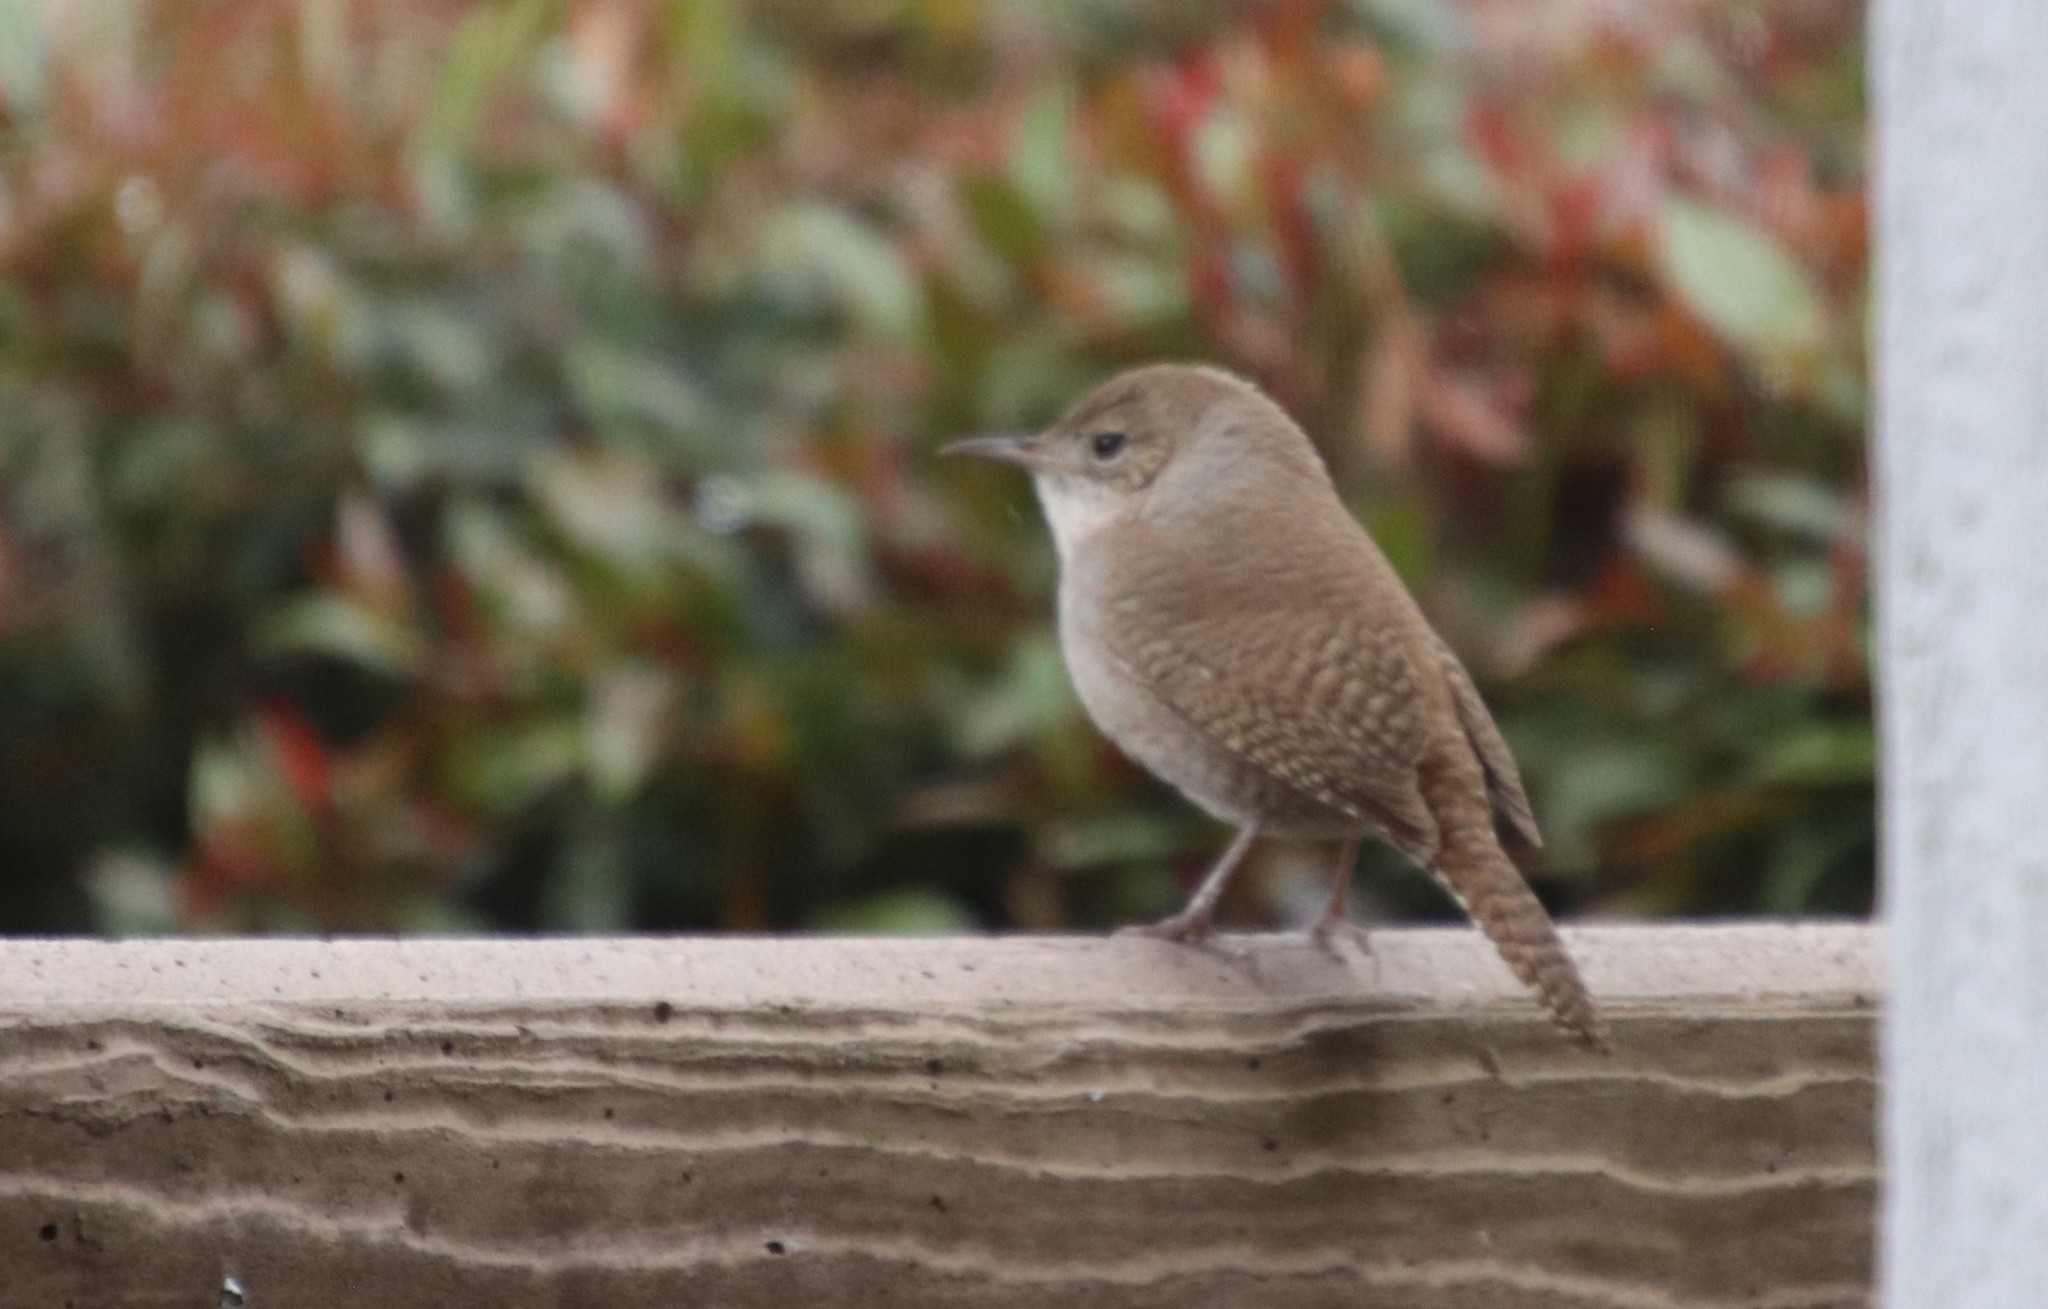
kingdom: Animalia
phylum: Chordata
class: Aves
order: Passeriformes
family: Troglodytidae
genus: Troglodytes
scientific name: Troglodytes aedon
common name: House wren
